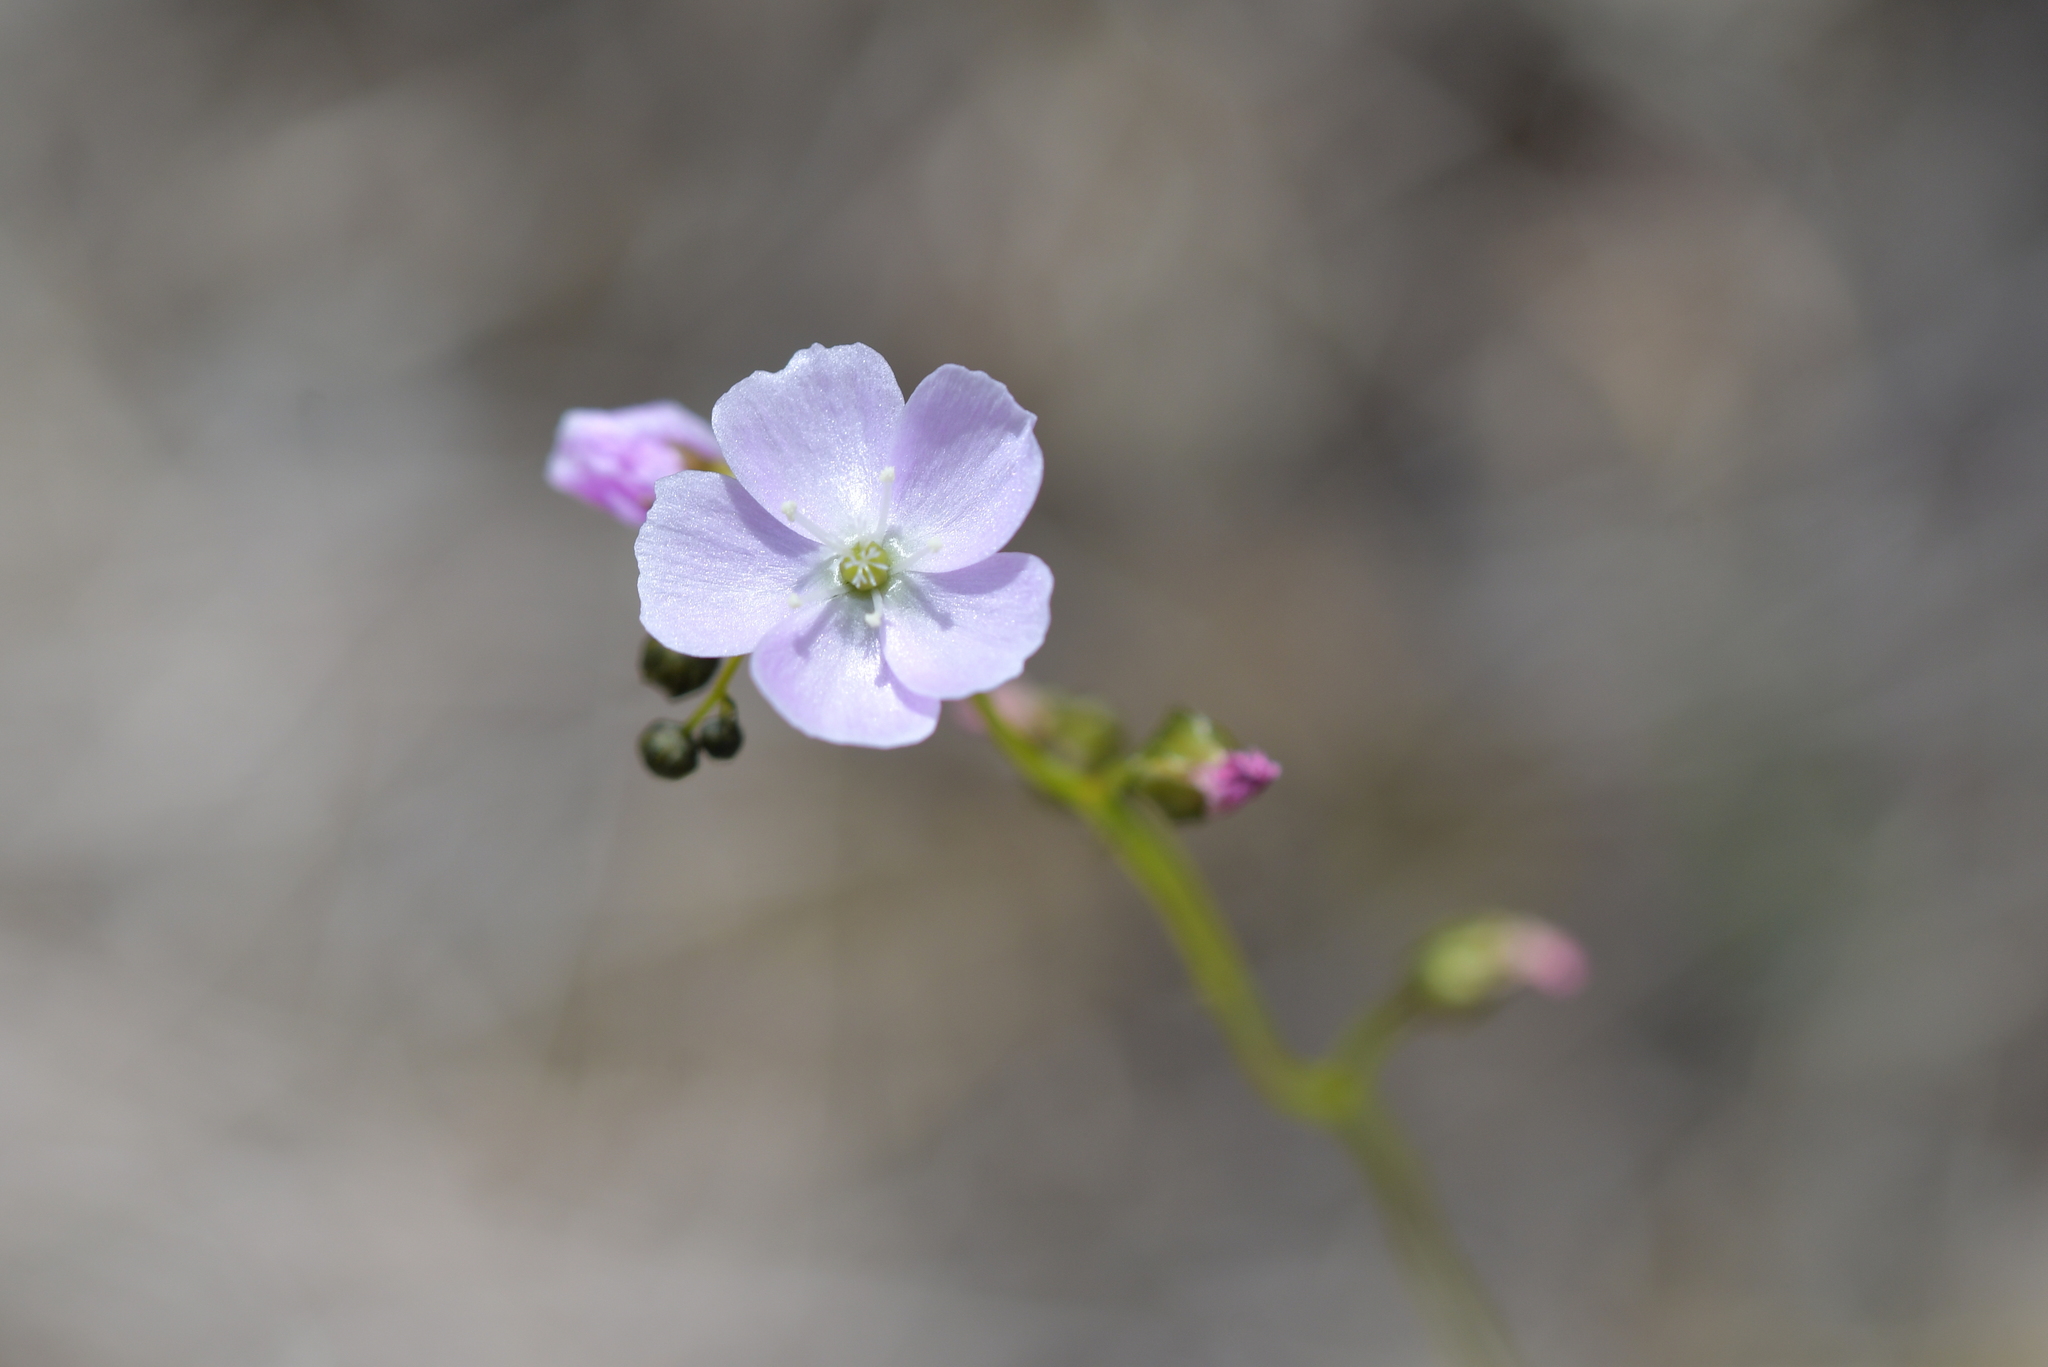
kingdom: Plantae
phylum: Tracheophyta
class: Magnoliopsida
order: Caryophyllales
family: Droseraceae
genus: Drosera
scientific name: Drosera peltata
